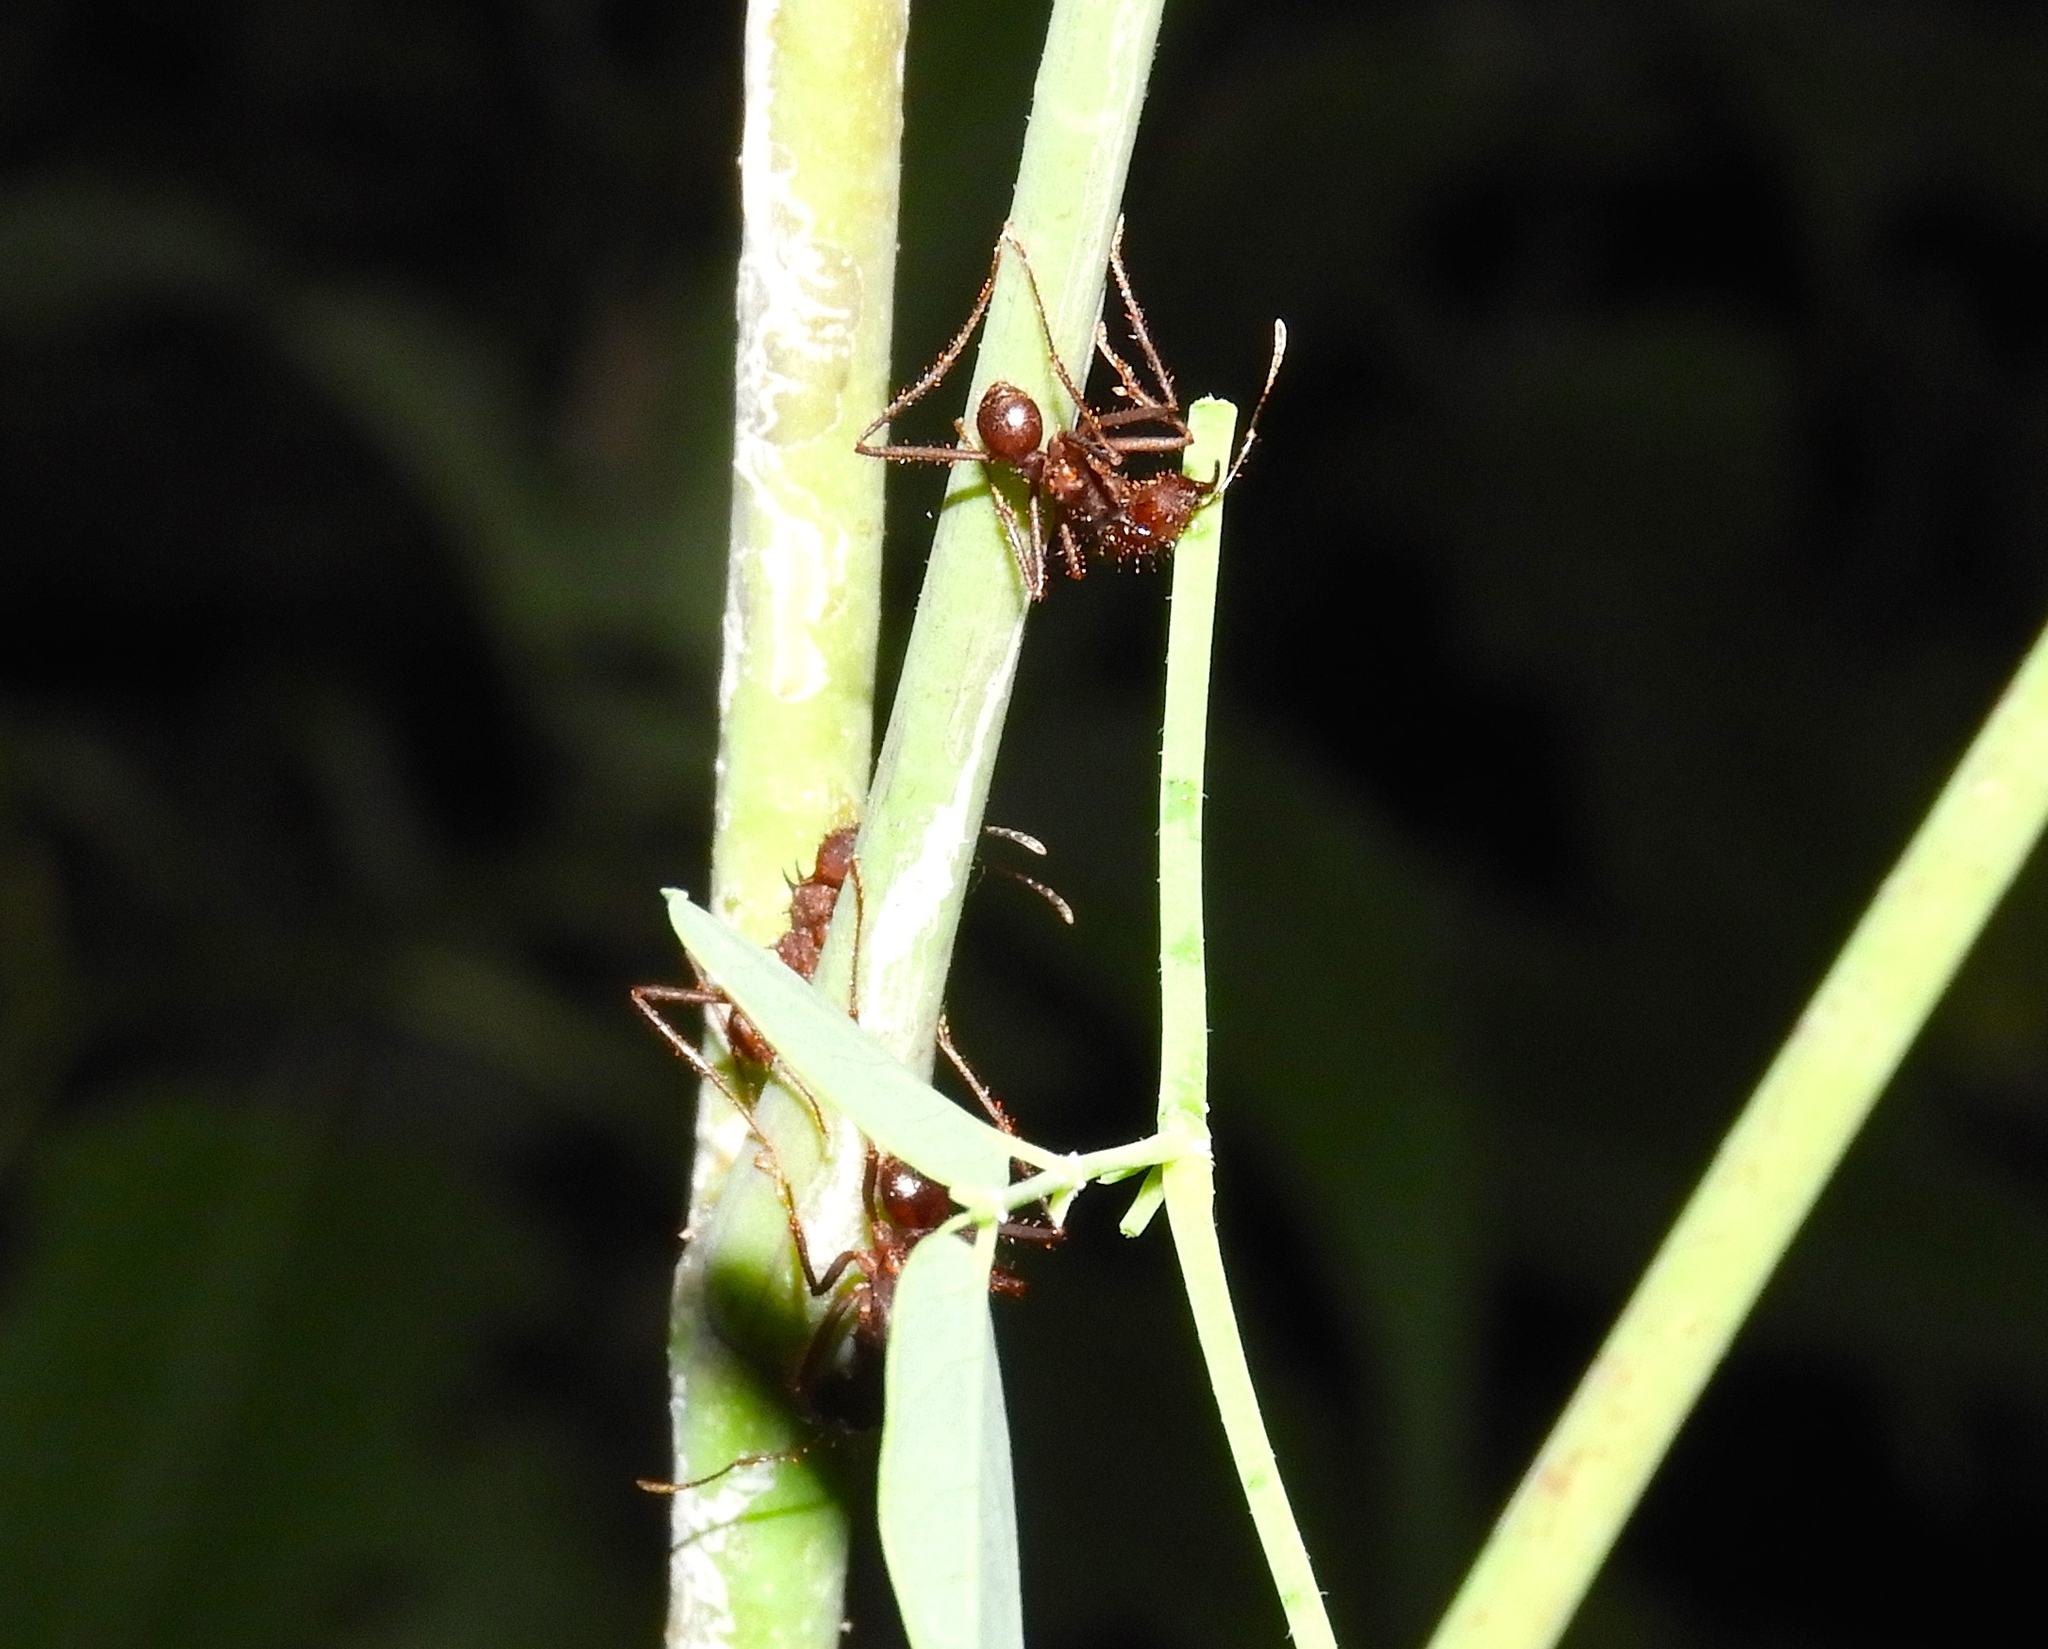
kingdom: Animalia
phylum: Arthropoda
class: Insecta
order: Hymenoptera
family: Formicidae
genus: Atta
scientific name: Atta mexicana
